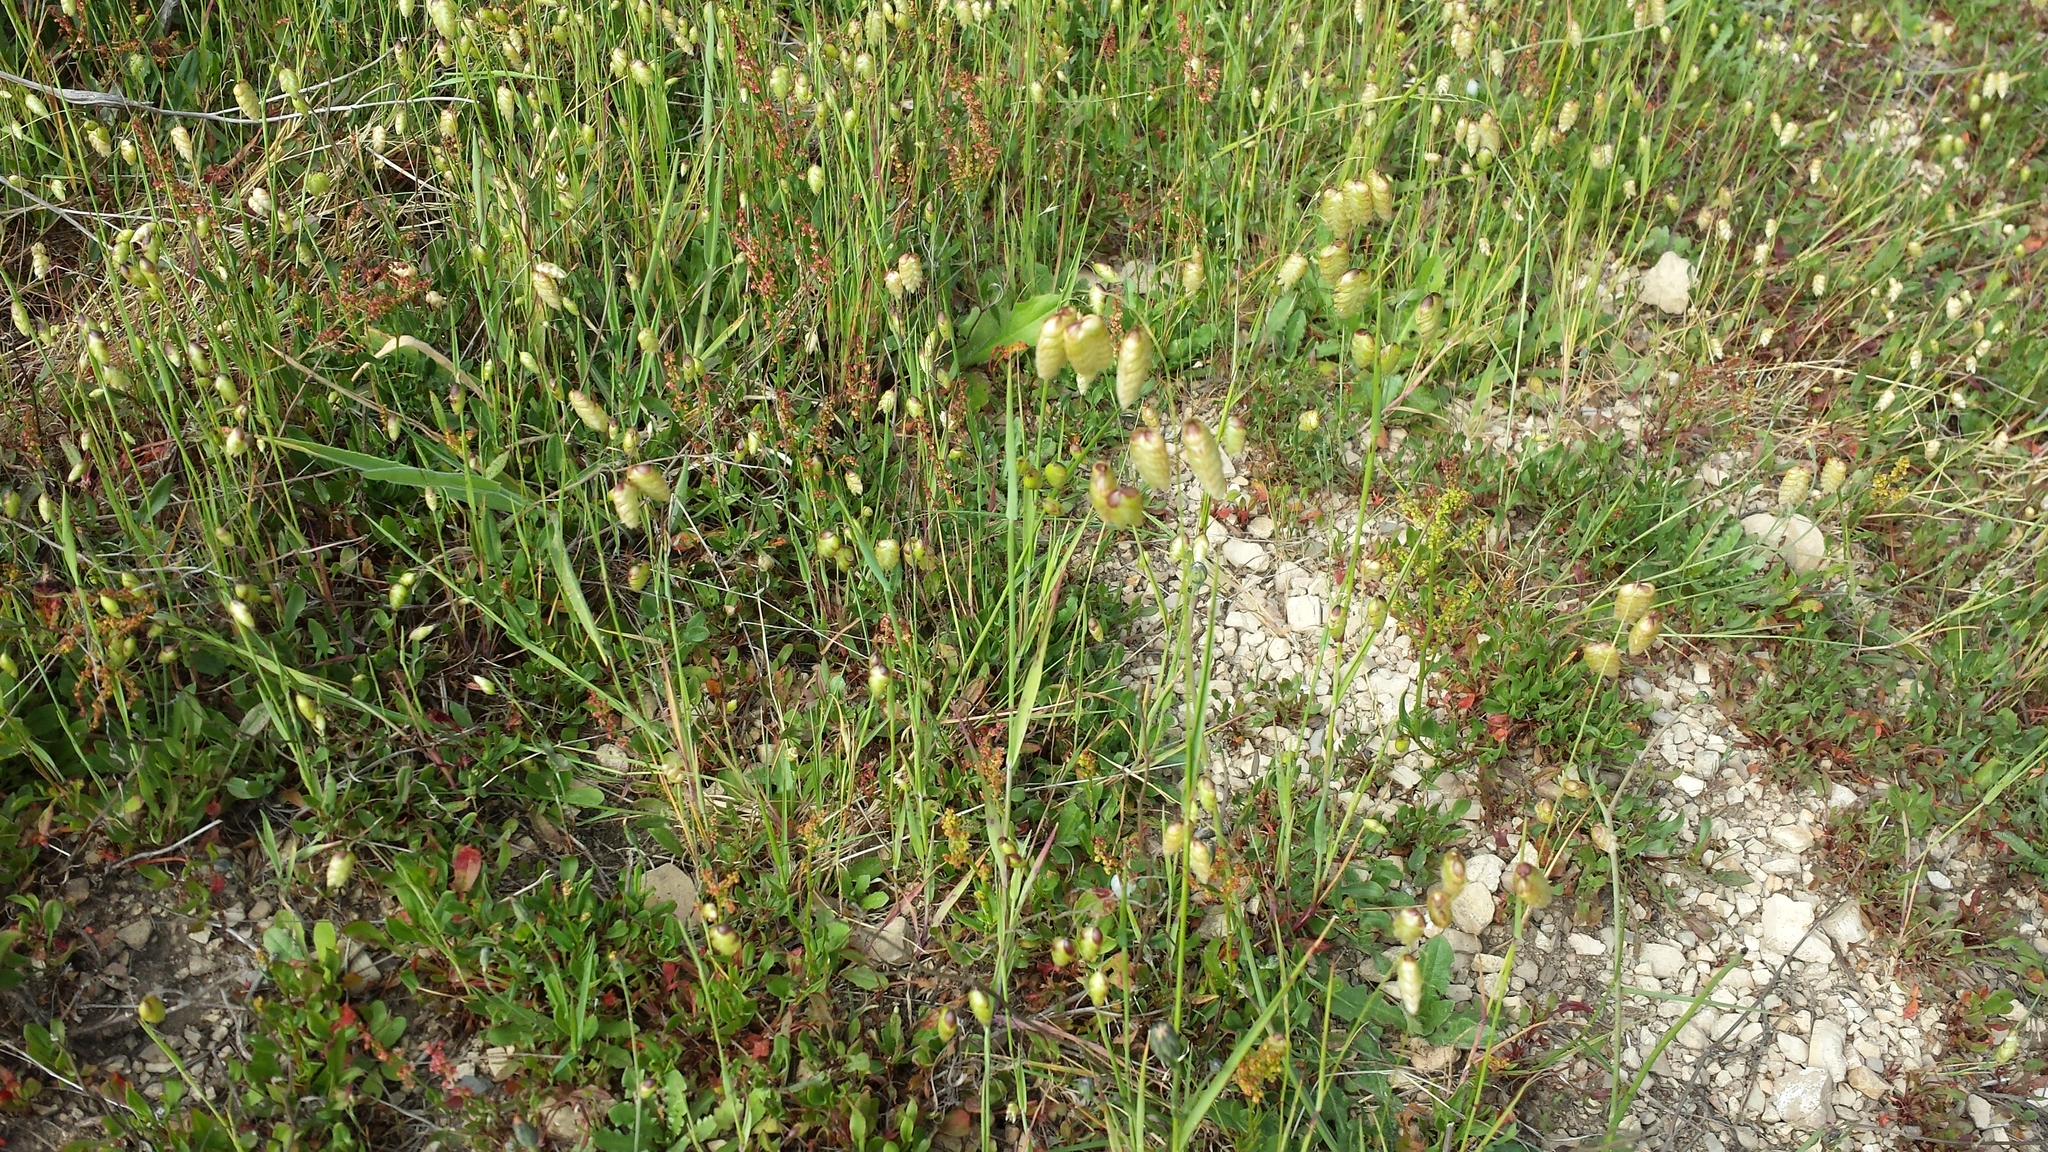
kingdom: Plantae
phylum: Tracheophyta
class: Liliopsida
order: Poales
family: Poaceae
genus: Briza
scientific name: Briza maxima
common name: Big quakinggrass
